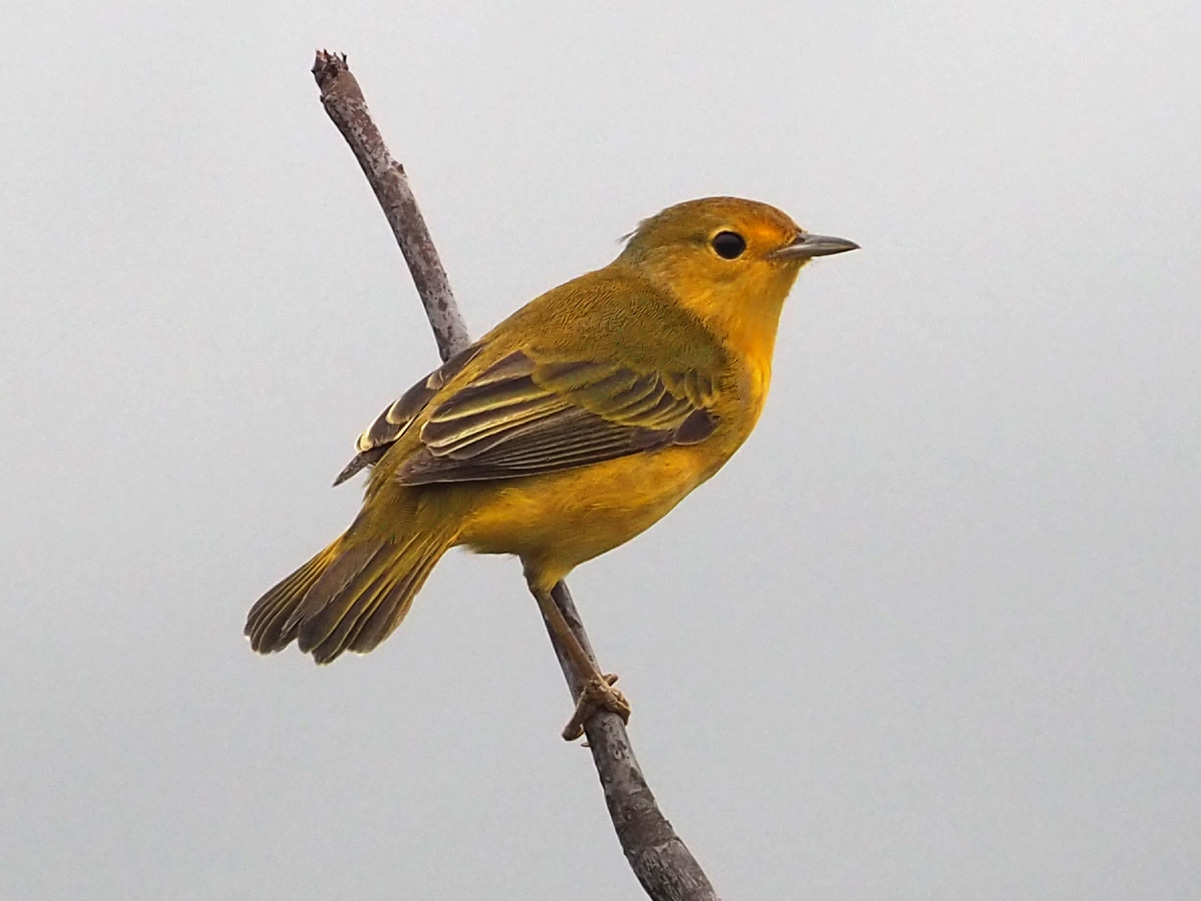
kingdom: Animalia
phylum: Chordata
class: Aves
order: Passeriformes
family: Parulidae
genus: Setophaga
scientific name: Setophaga petechia
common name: Yellow warbler
